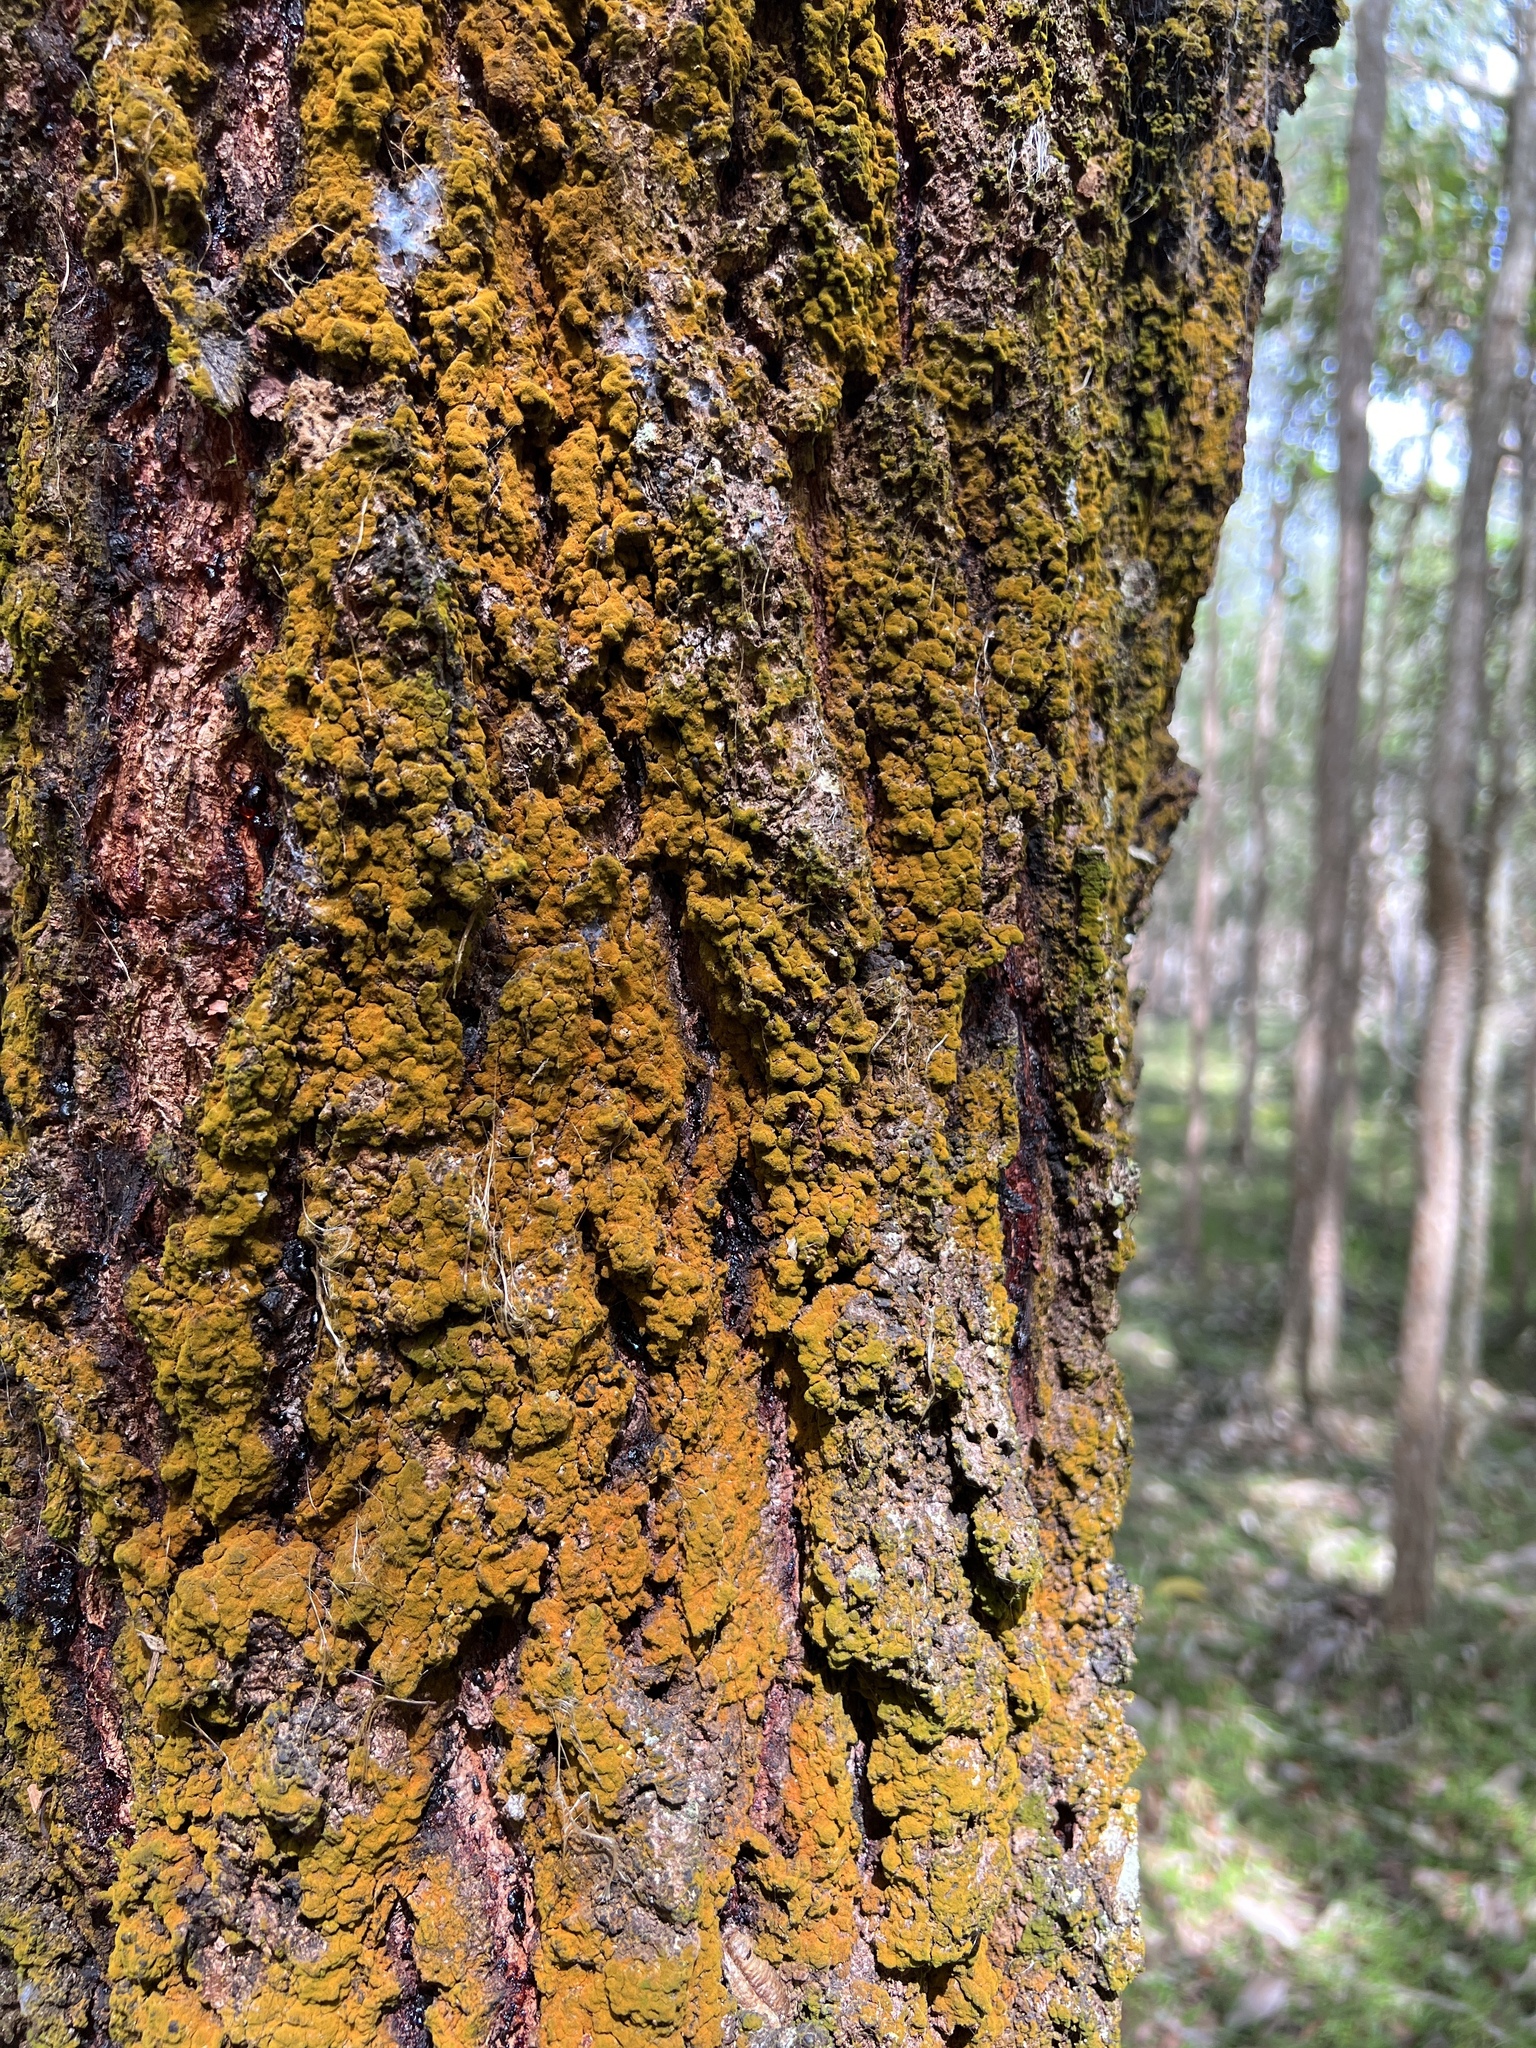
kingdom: Fungi
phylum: Basidiomycota
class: Agaricomycetes
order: Boletales
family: Boletaceae
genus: Boletellus
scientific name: Boletellus emodensis
